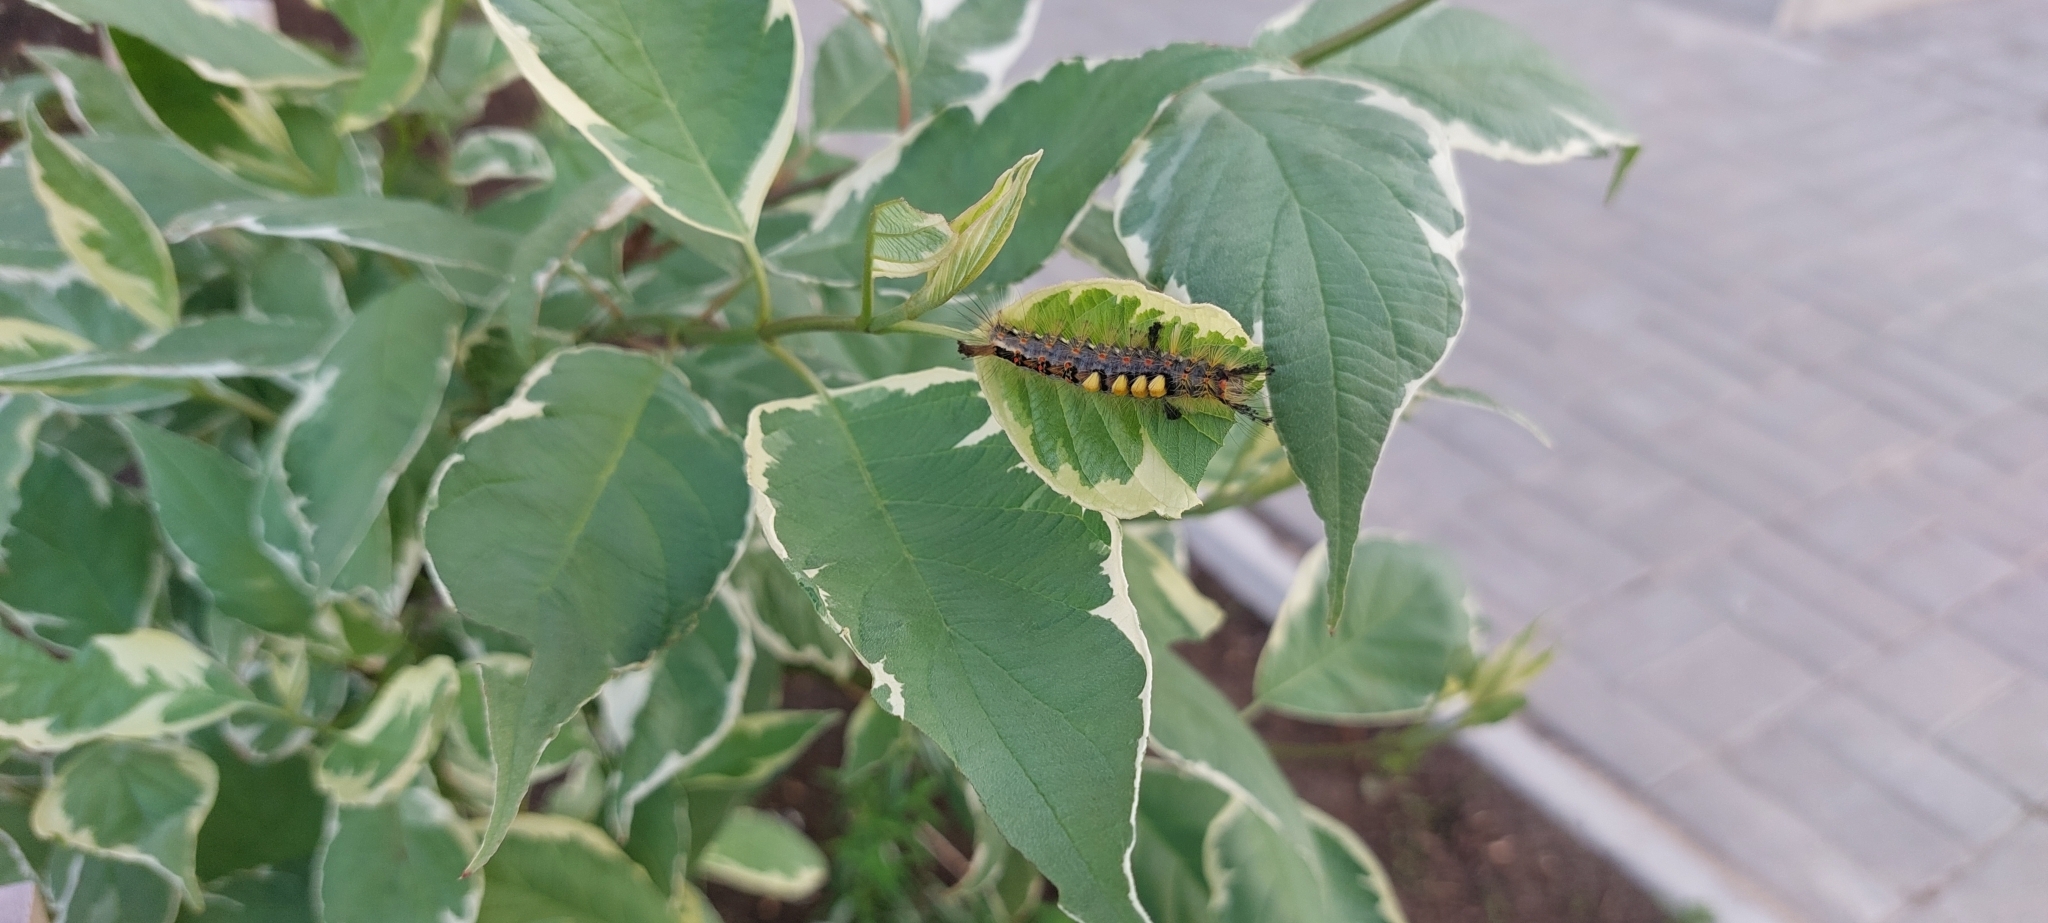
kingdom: Animalia
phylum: Arthropoda
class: Insecta
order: Lepidoptera
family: Erebidae
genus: Orgyia
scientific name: Orgyia antiqua
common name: Vapourer
